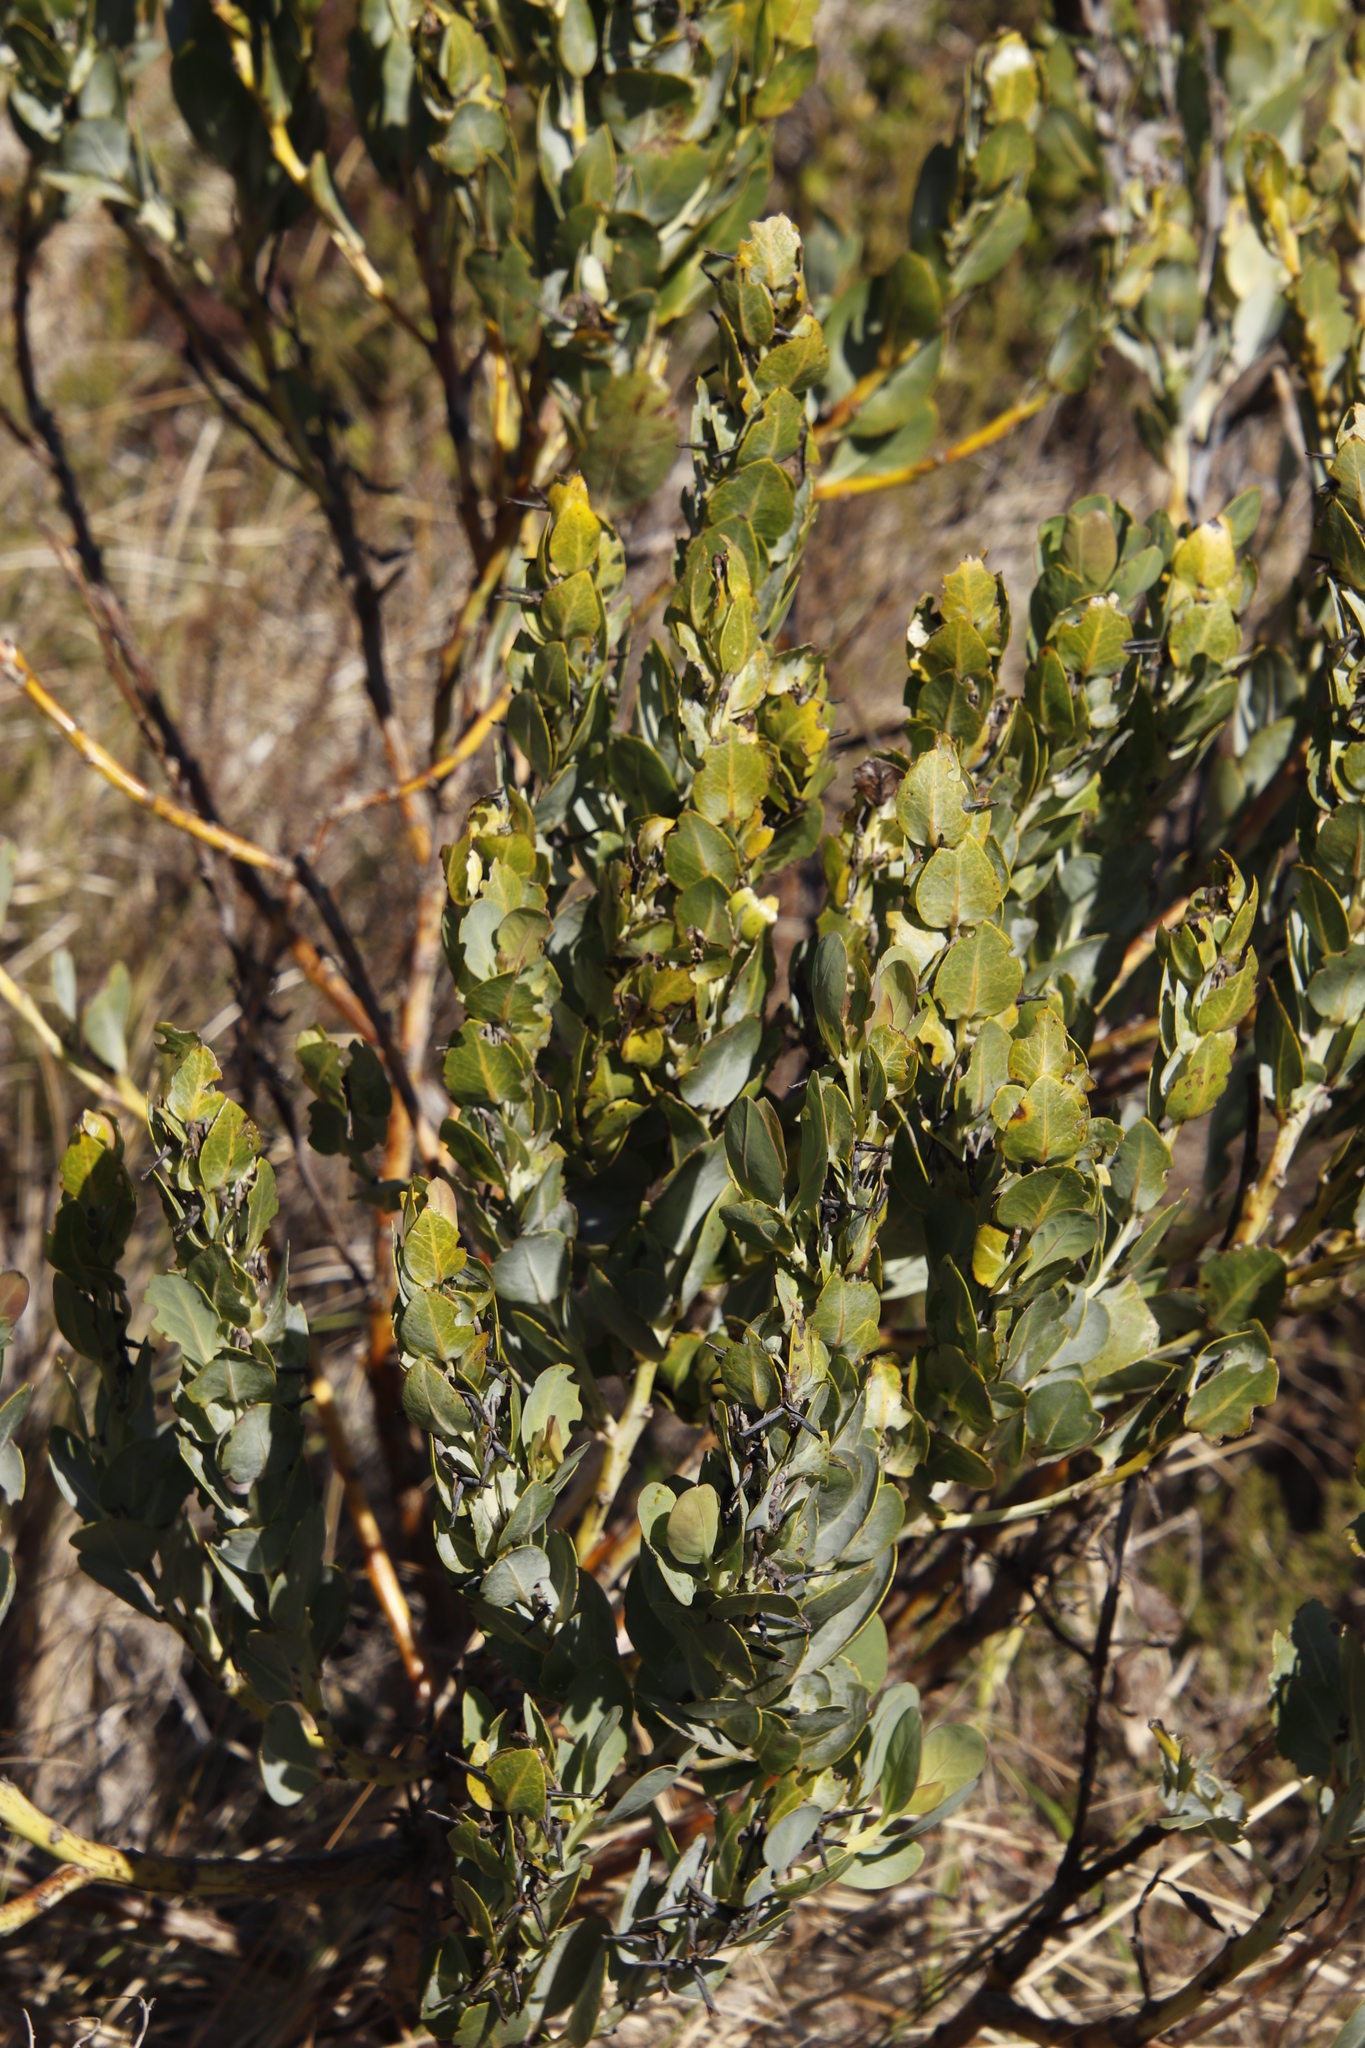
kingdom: Plantae
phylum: Tracheophyta
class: Magnoliopsida
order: Fabales
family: Fabaceae
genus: Rafnia
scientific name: Rafnia triflora
